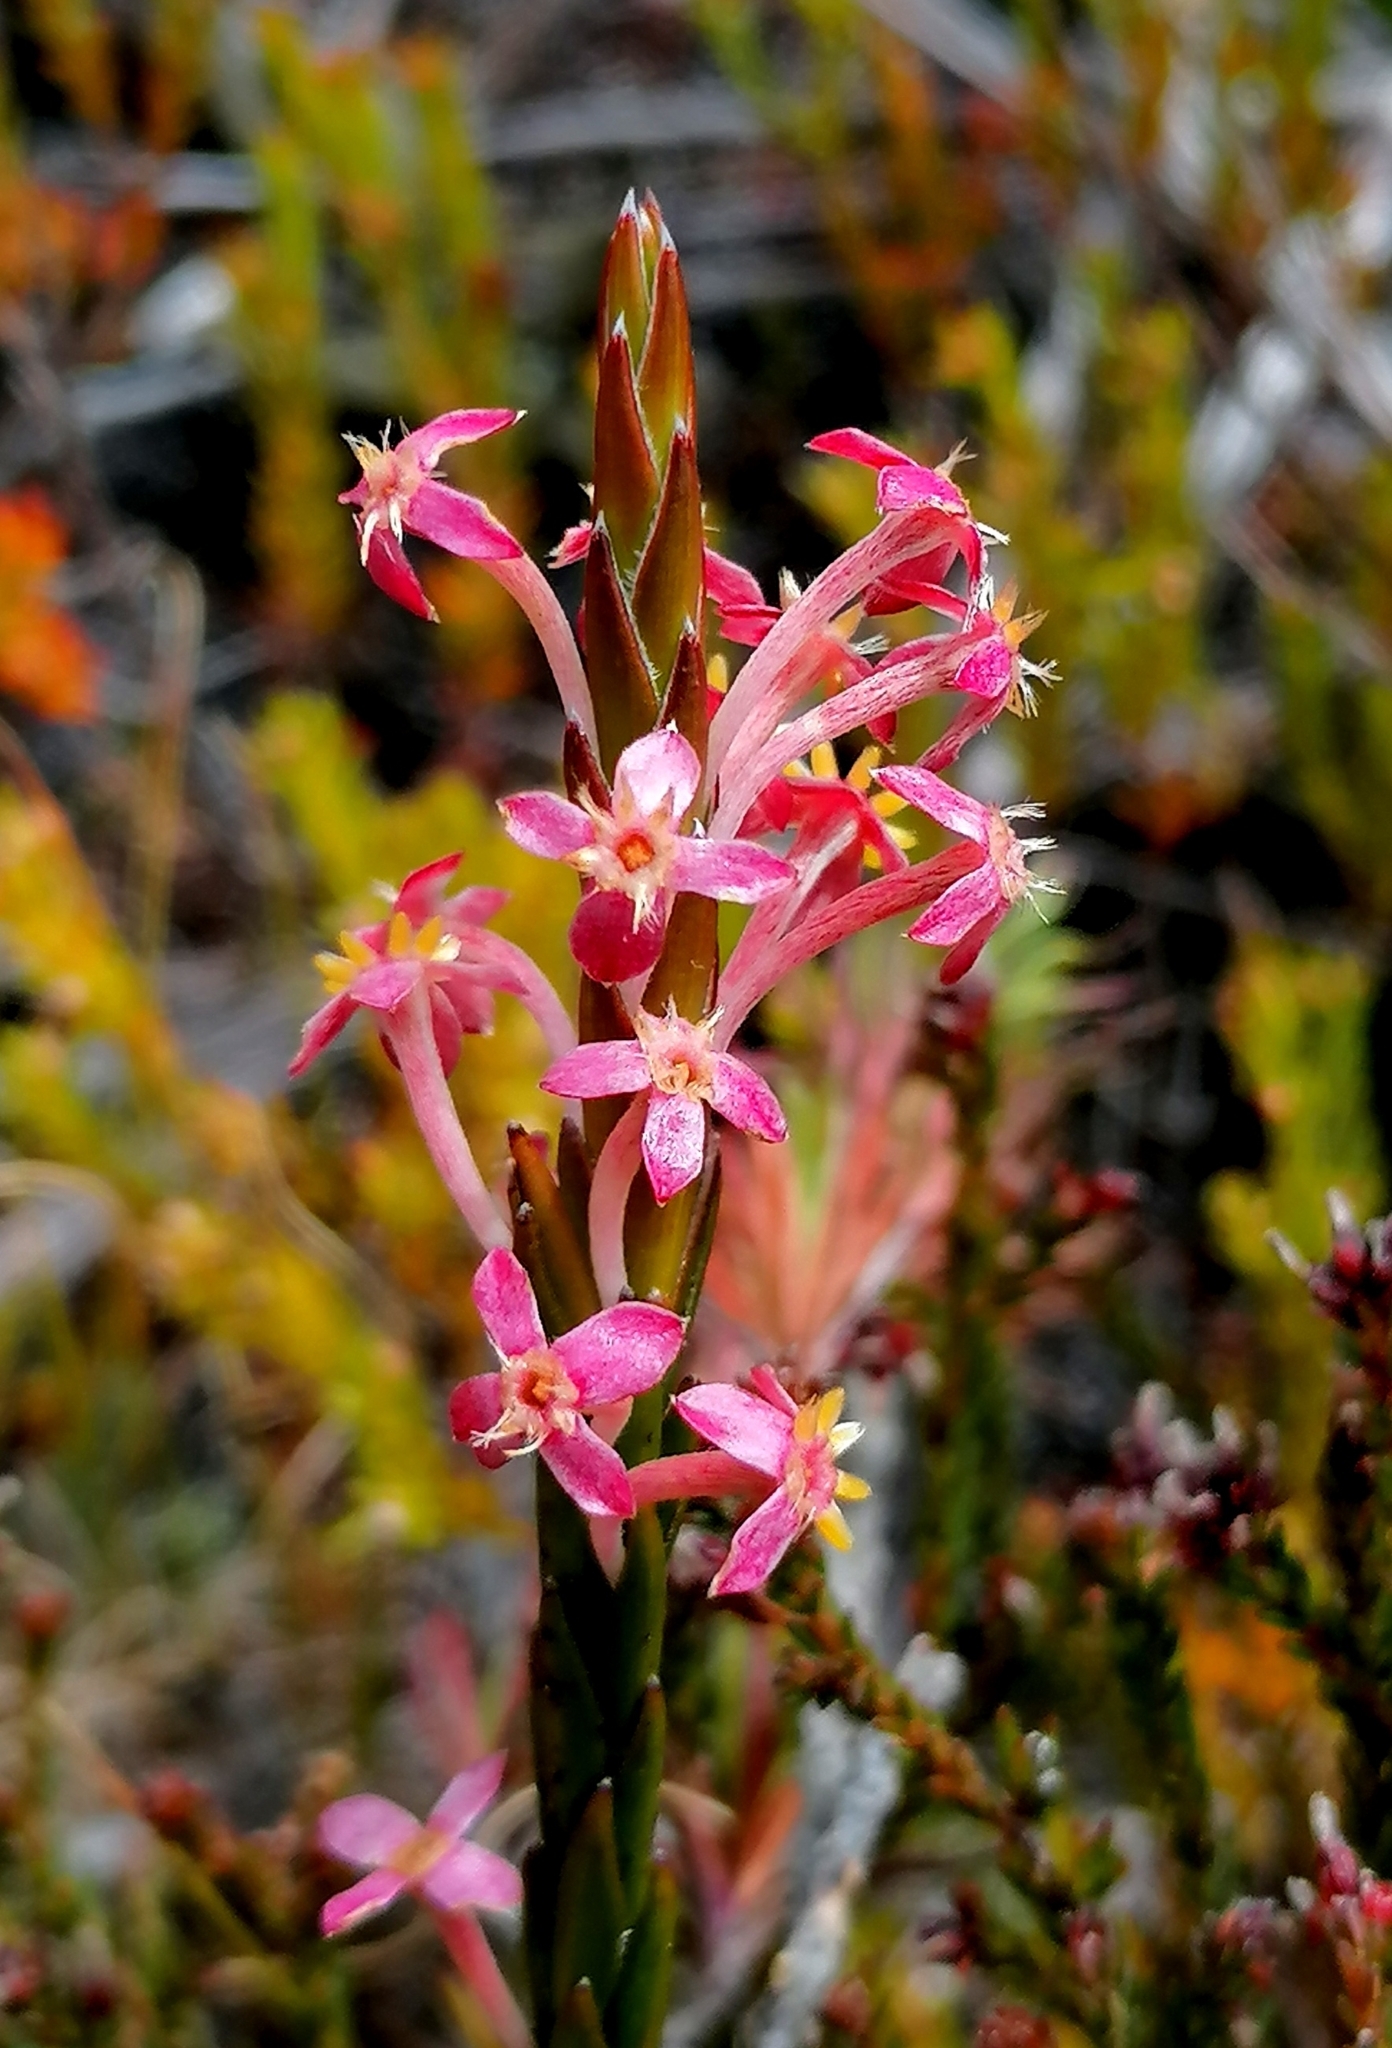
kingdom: Plantae
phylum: Tracheophyta
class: Magnoliopsida
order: Malvales
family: Thymelaeaceae
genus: Struthiola
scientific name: Struthiola ciliata
